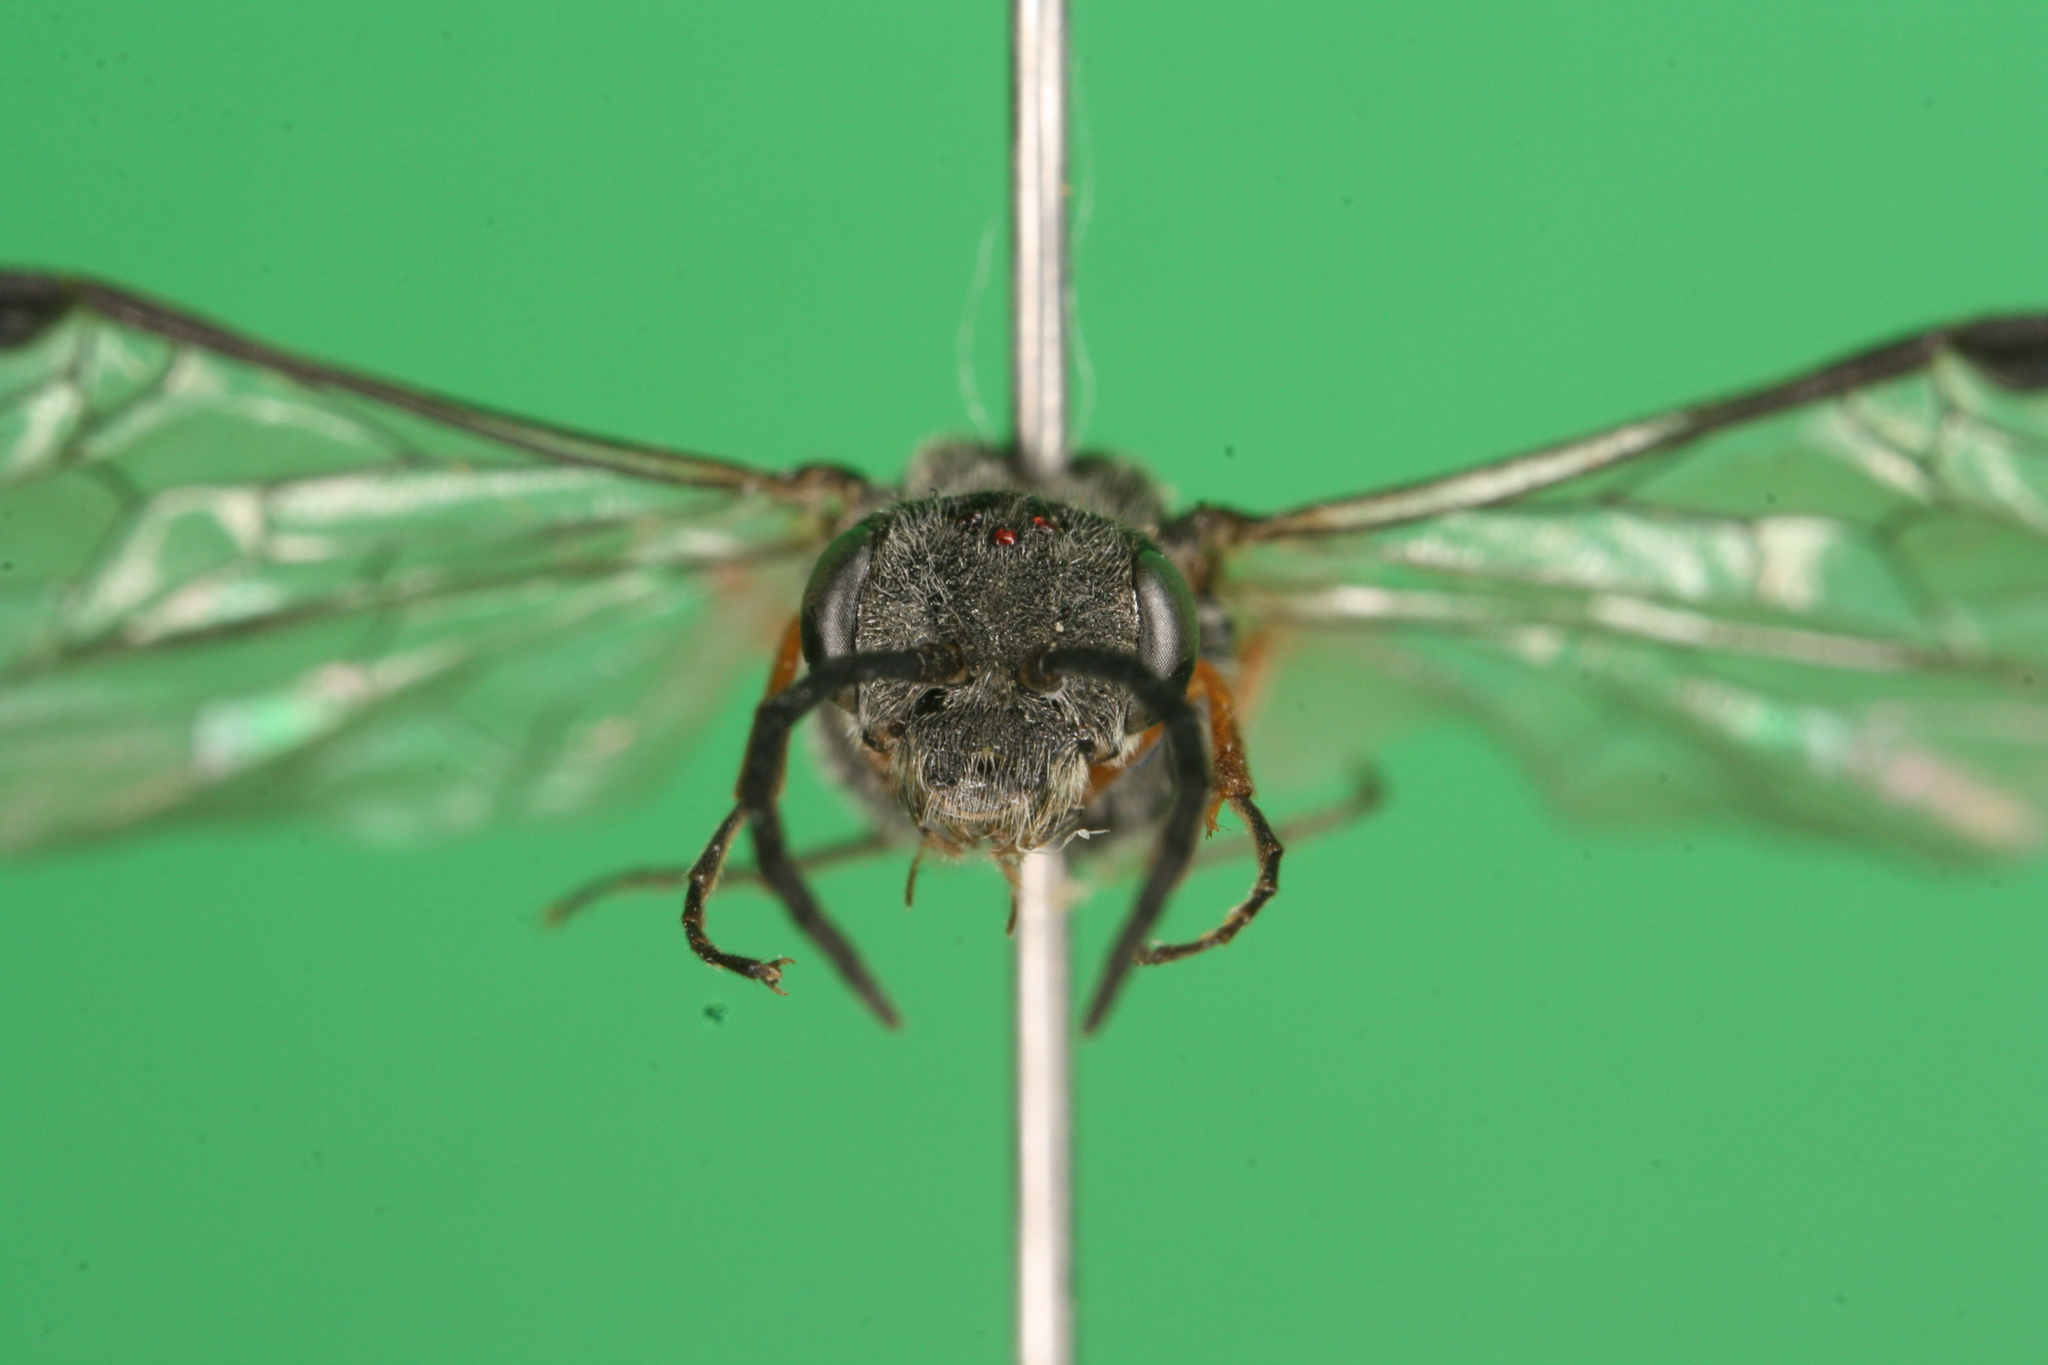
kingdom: Animalia
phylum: Arthropoda
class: Insecta
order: Hymenoptera
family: Tenthredinidae
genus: Dolerus
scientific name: Dolerus vestigialis
